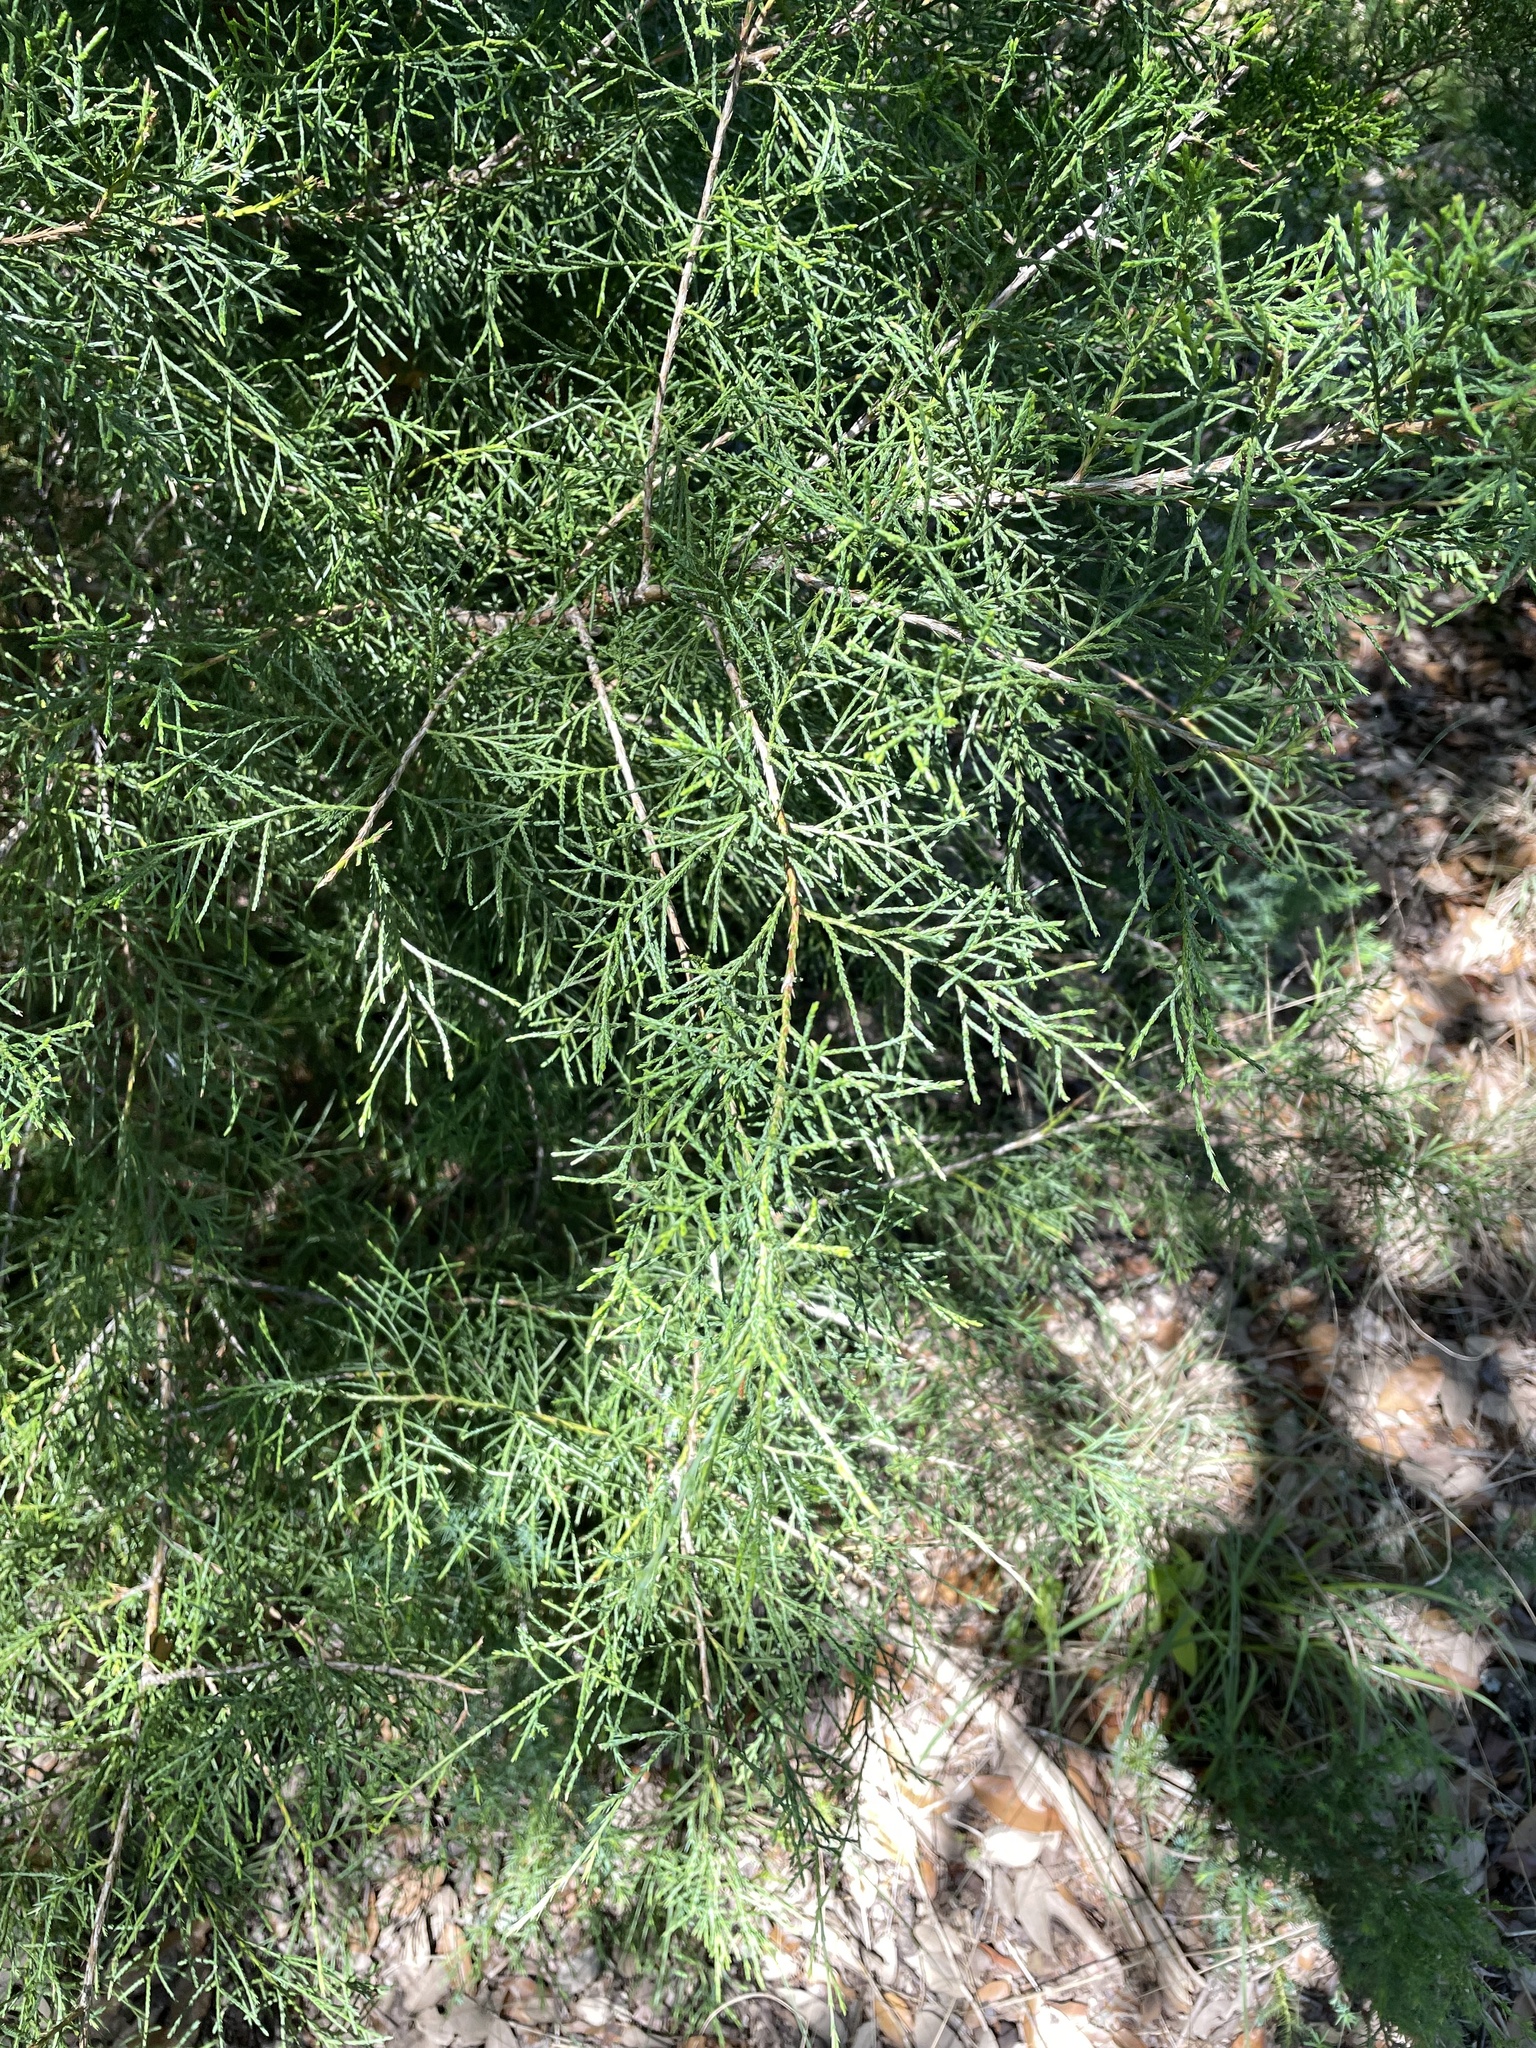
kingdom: Plantae
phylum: Tracheophyta
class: Pinopsida
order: Pinales
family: Cupressaceae
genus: Juniperus
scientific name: Juniperus virginiana
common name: Red juniper
